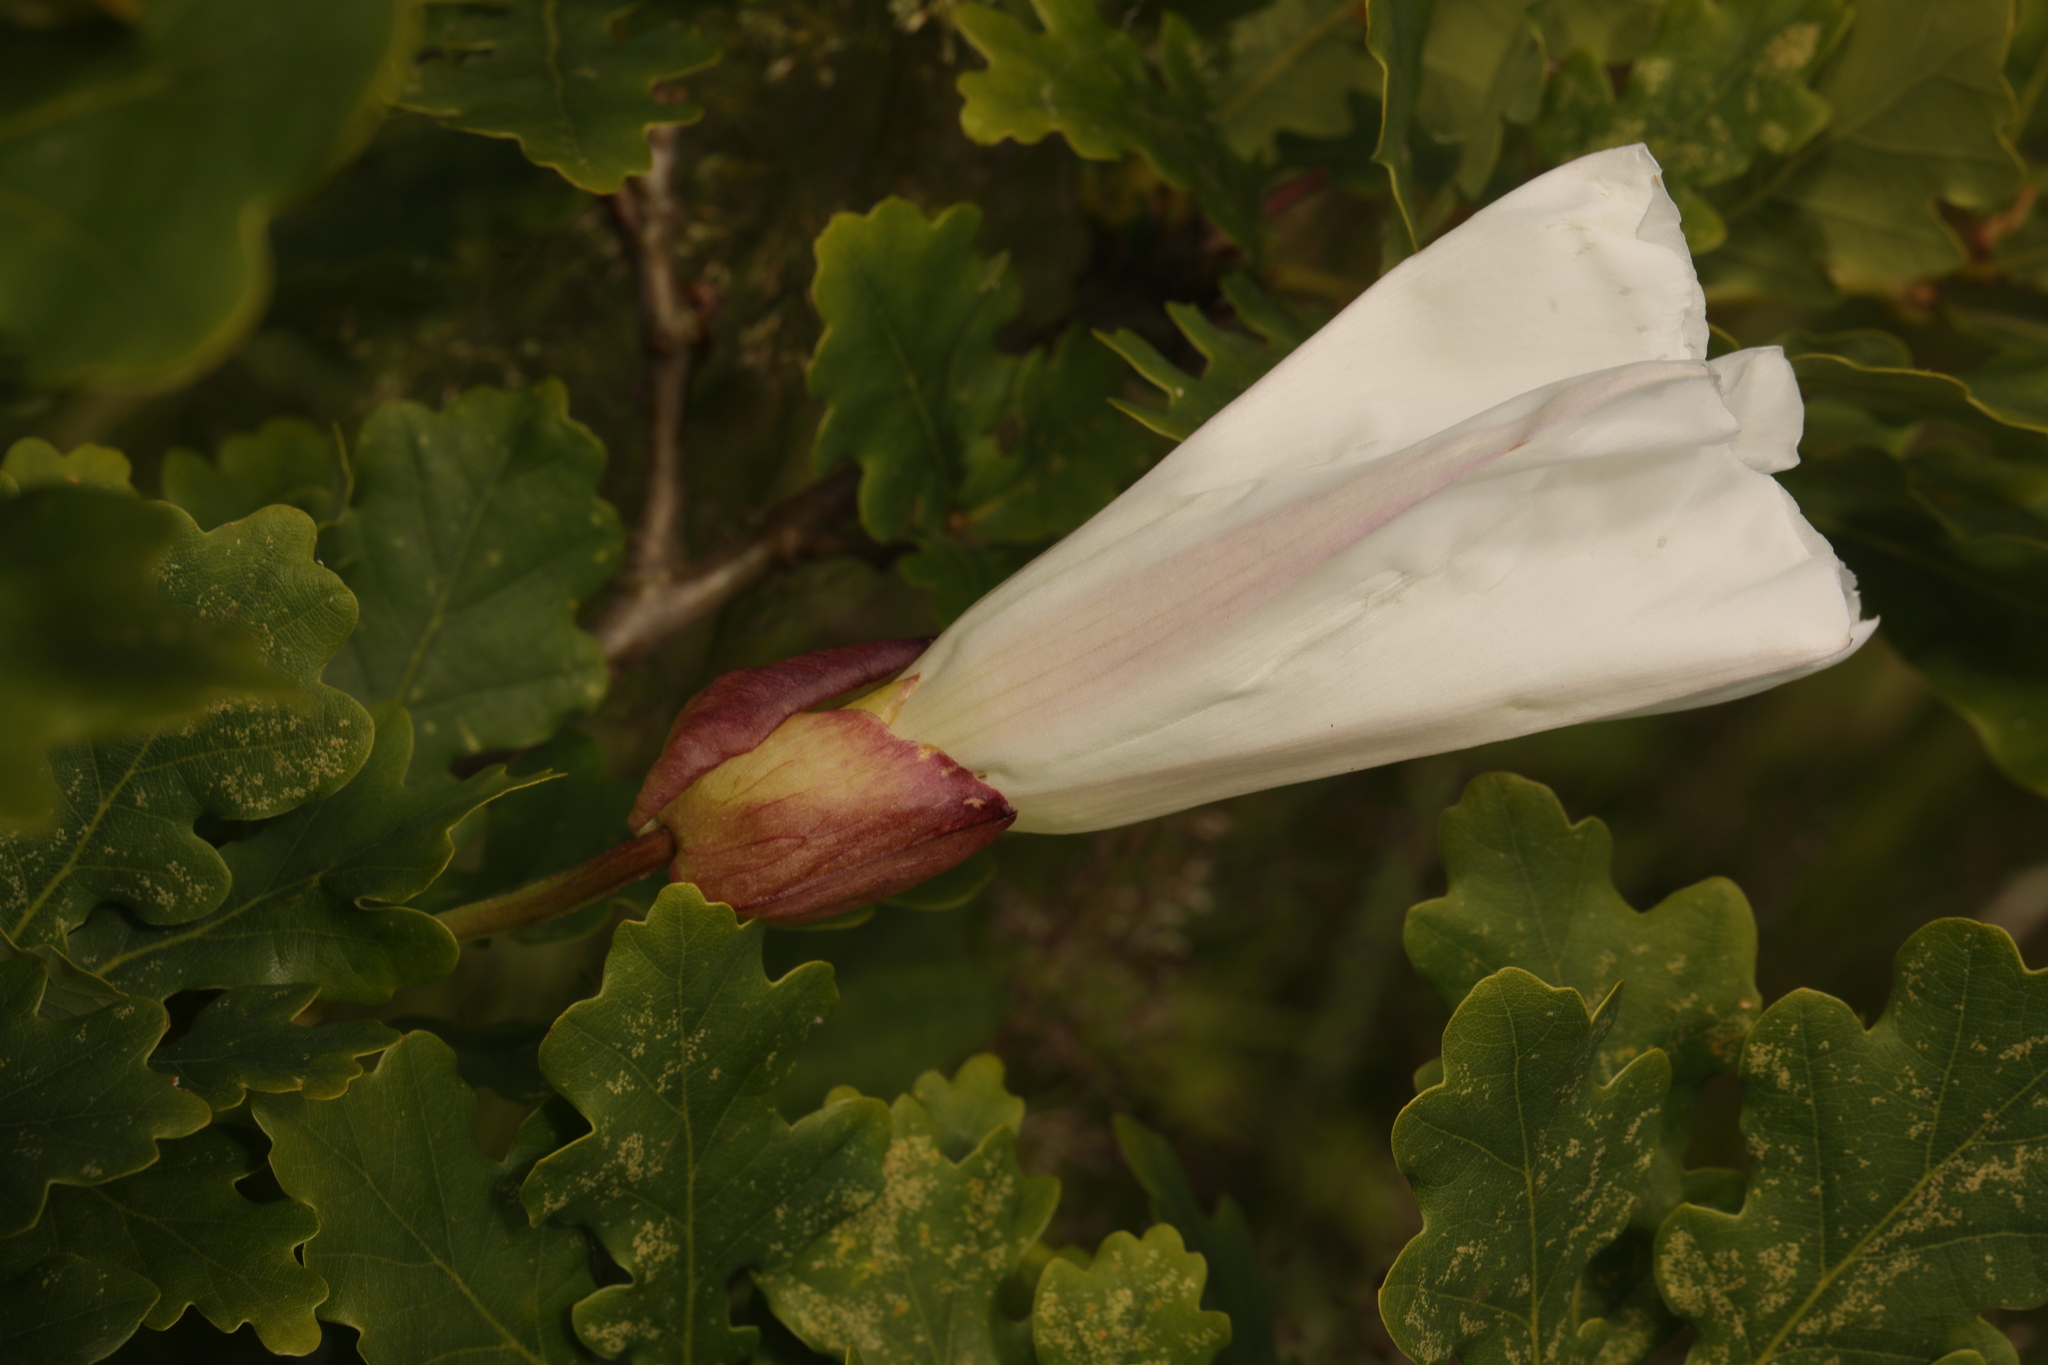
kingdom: Plantae
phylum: Tracheophyta
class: Magnoliopsida
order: Solanales
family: Convolvulaceae
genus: Calystegia
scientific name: Calystegia silvatica
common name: Large bindweed
